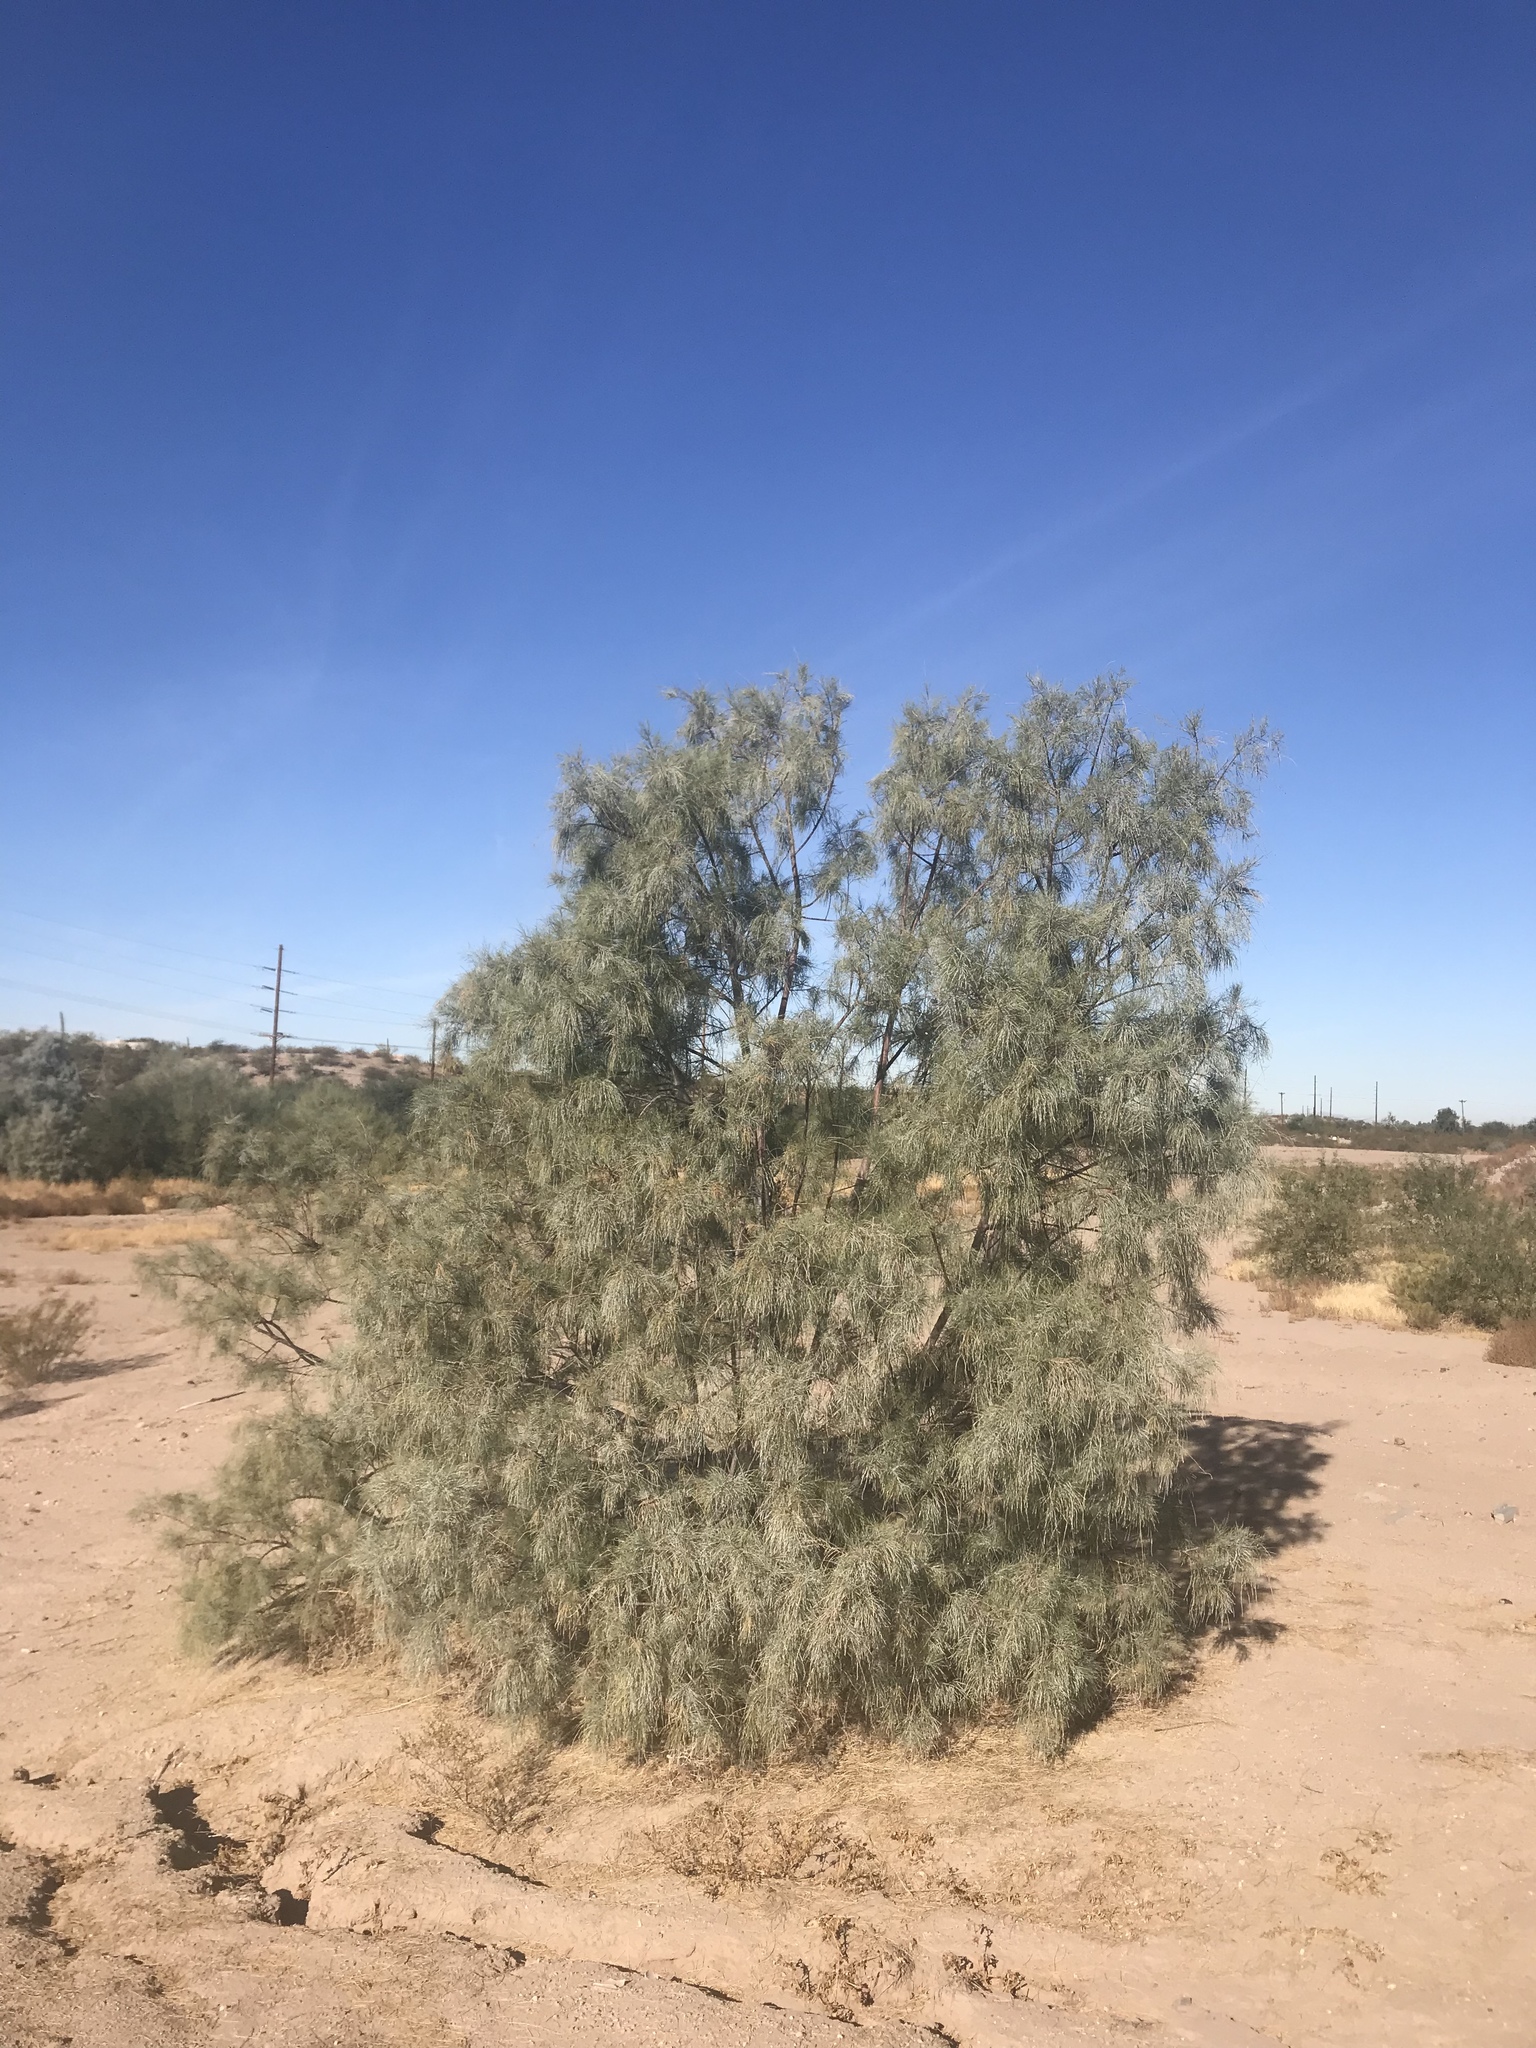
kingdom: Plantae
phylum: Tracheophyta
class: Magnoliopsida
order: Caryophyllales
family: Tamaricaceae
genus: Tamarix
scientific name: Tamarix aphylla
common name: Athel tamarisk
